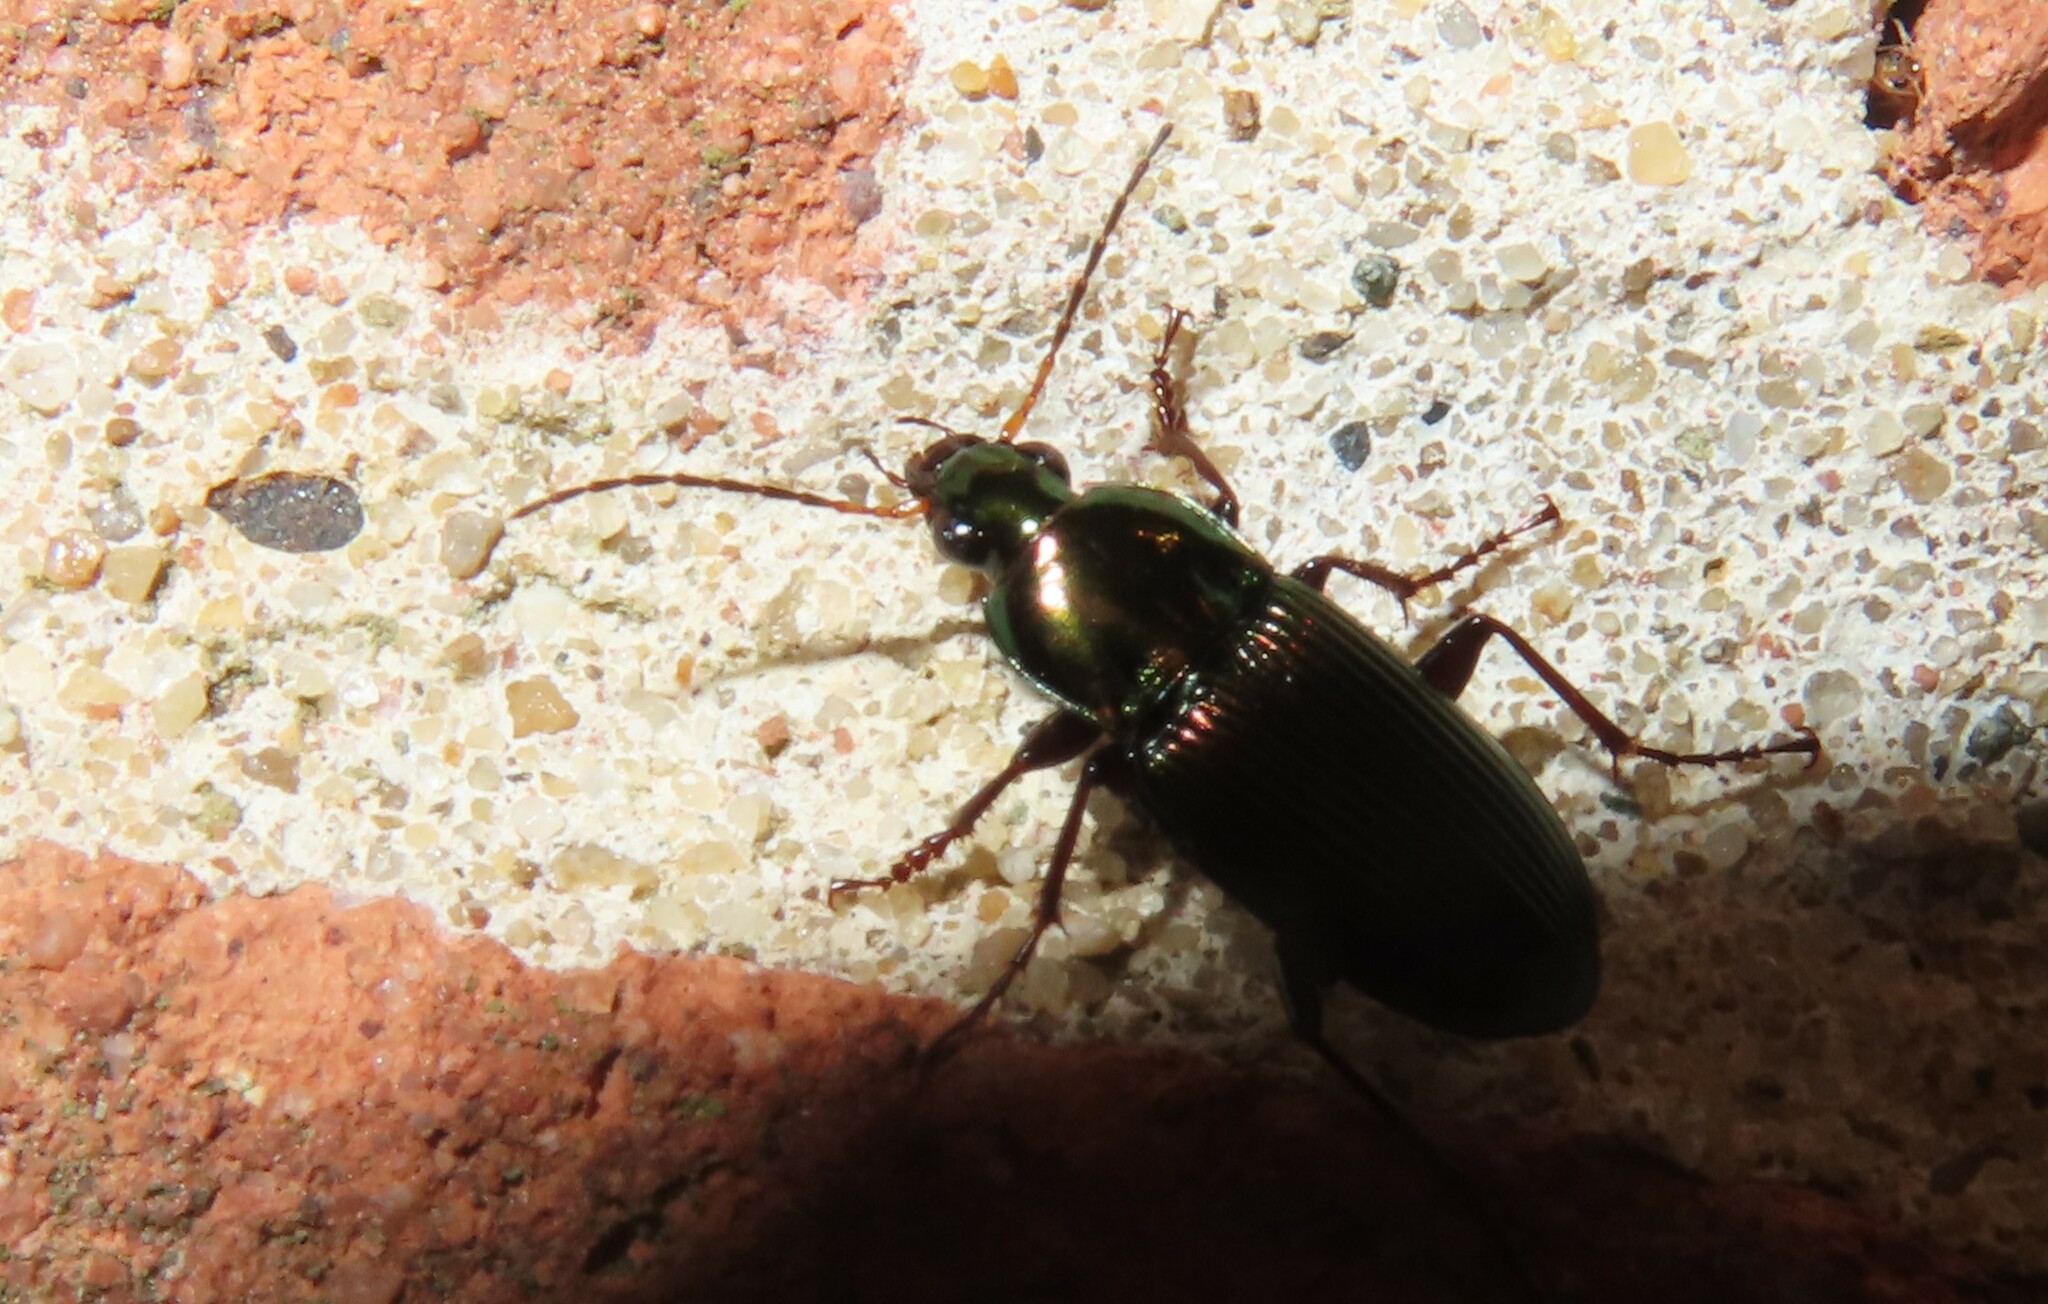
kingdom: Animalia
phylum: Arthropoda
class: Insecta
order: Coleoptera
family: Carabidae
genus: Poecilus
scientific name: Poecilus chalcites
